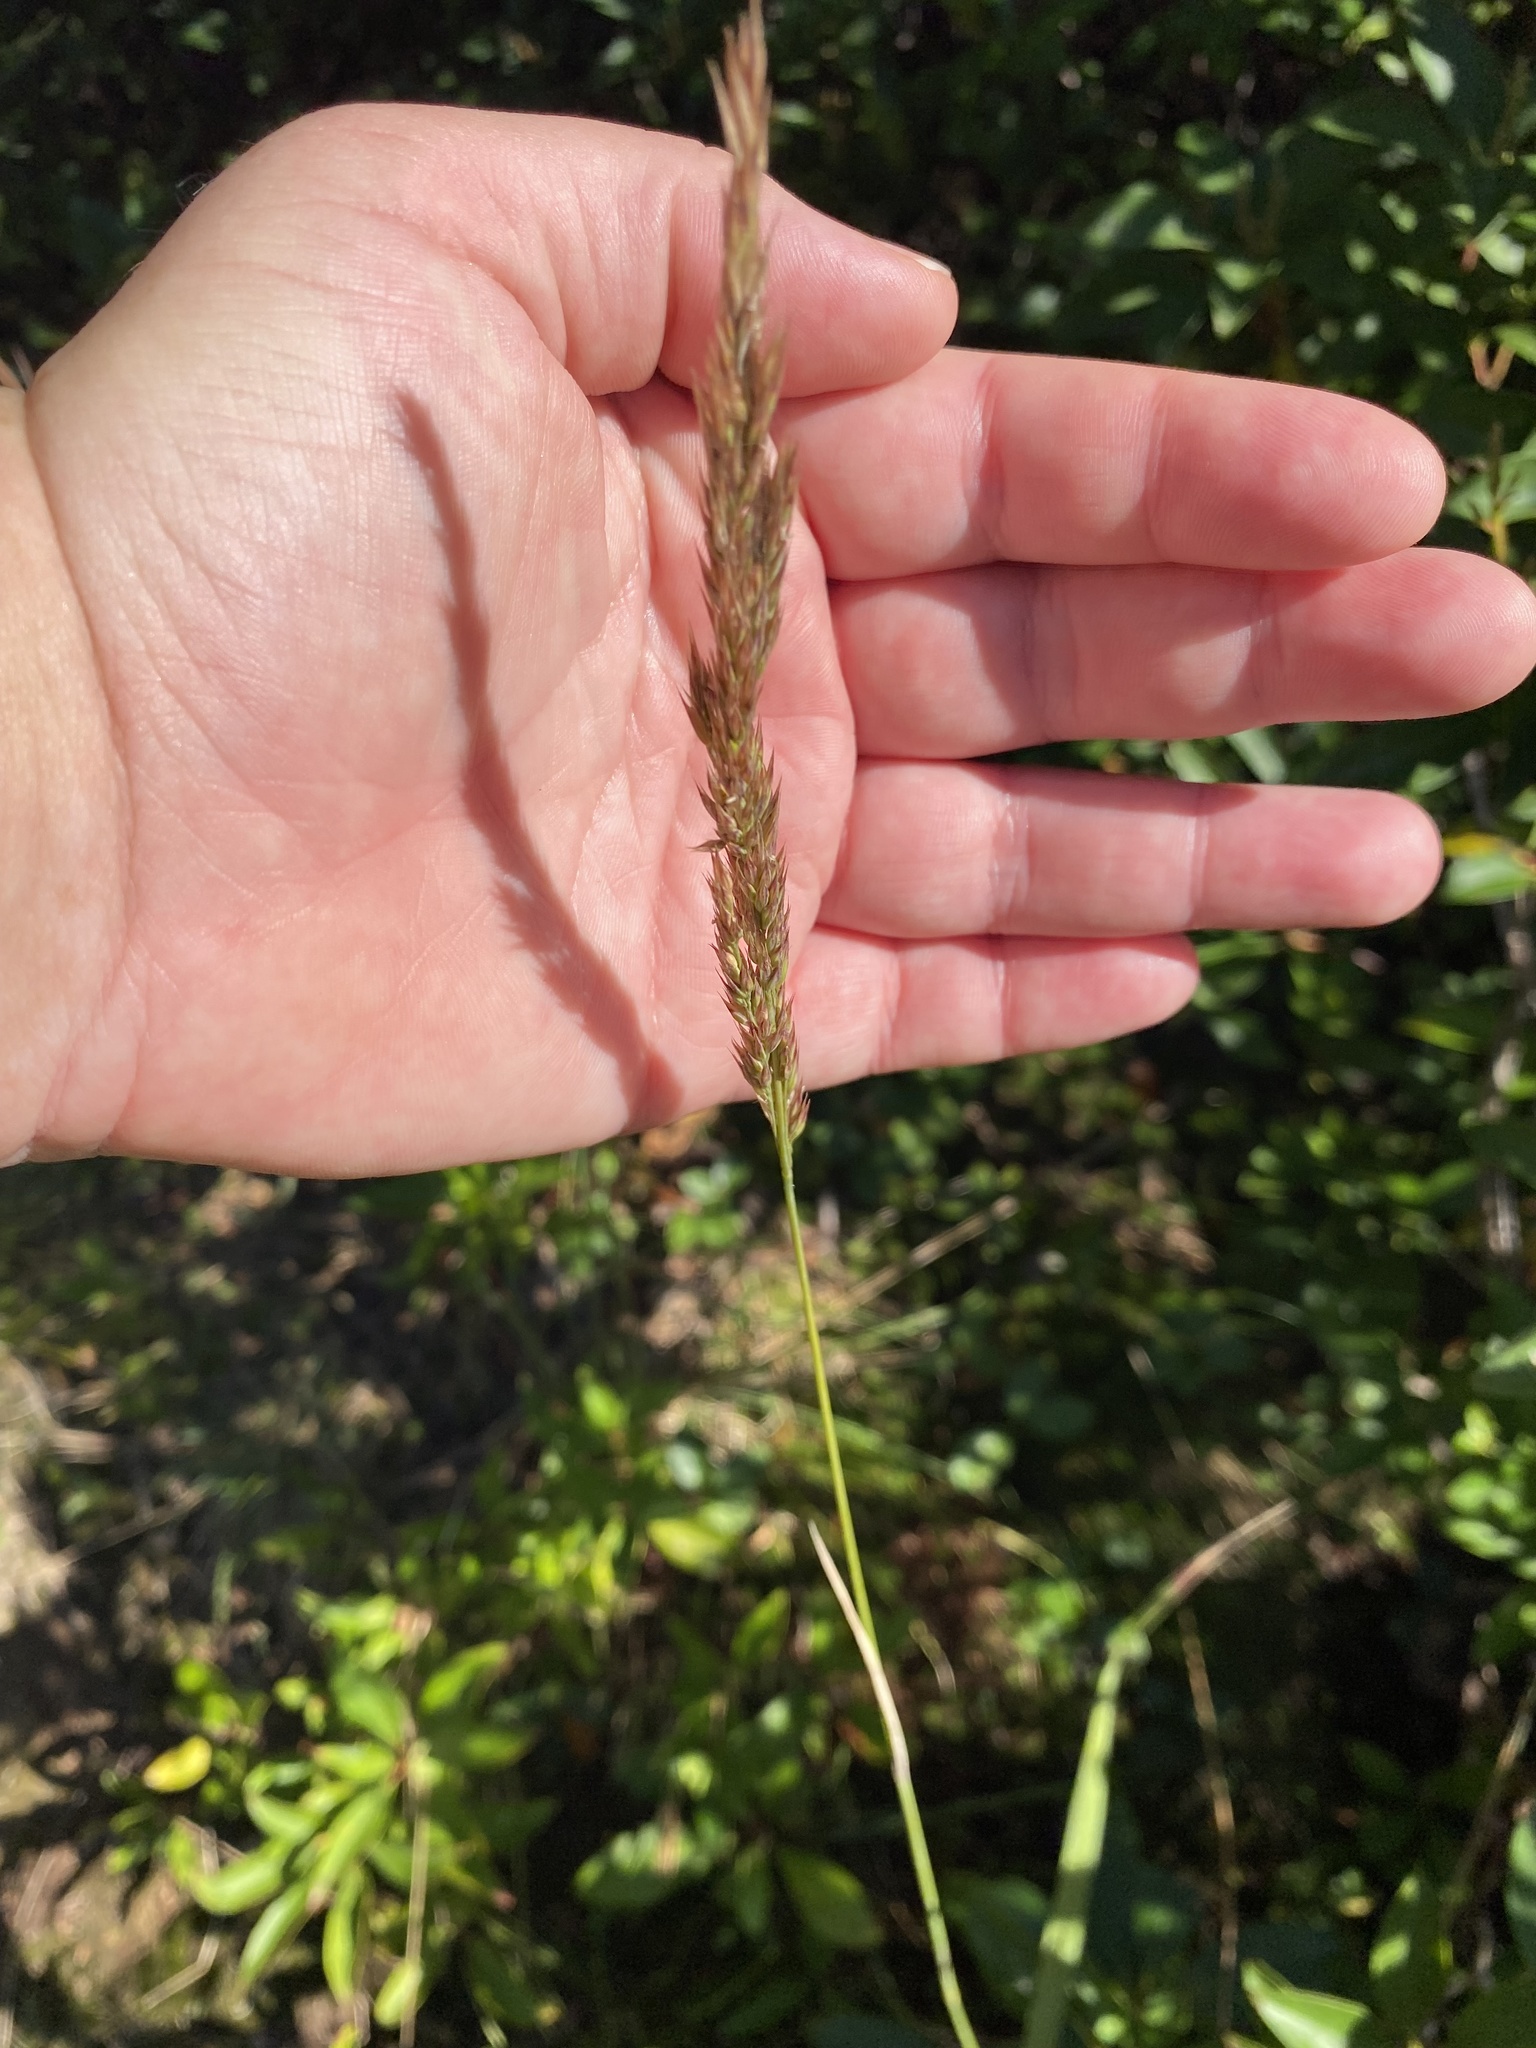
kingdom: Plantae
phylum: Tracheophyta
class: Liliopsida
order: Poales
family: Poaceae
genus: Muhlenbergia
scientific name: Muhlenbergia glomerata
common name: Bog muhly
